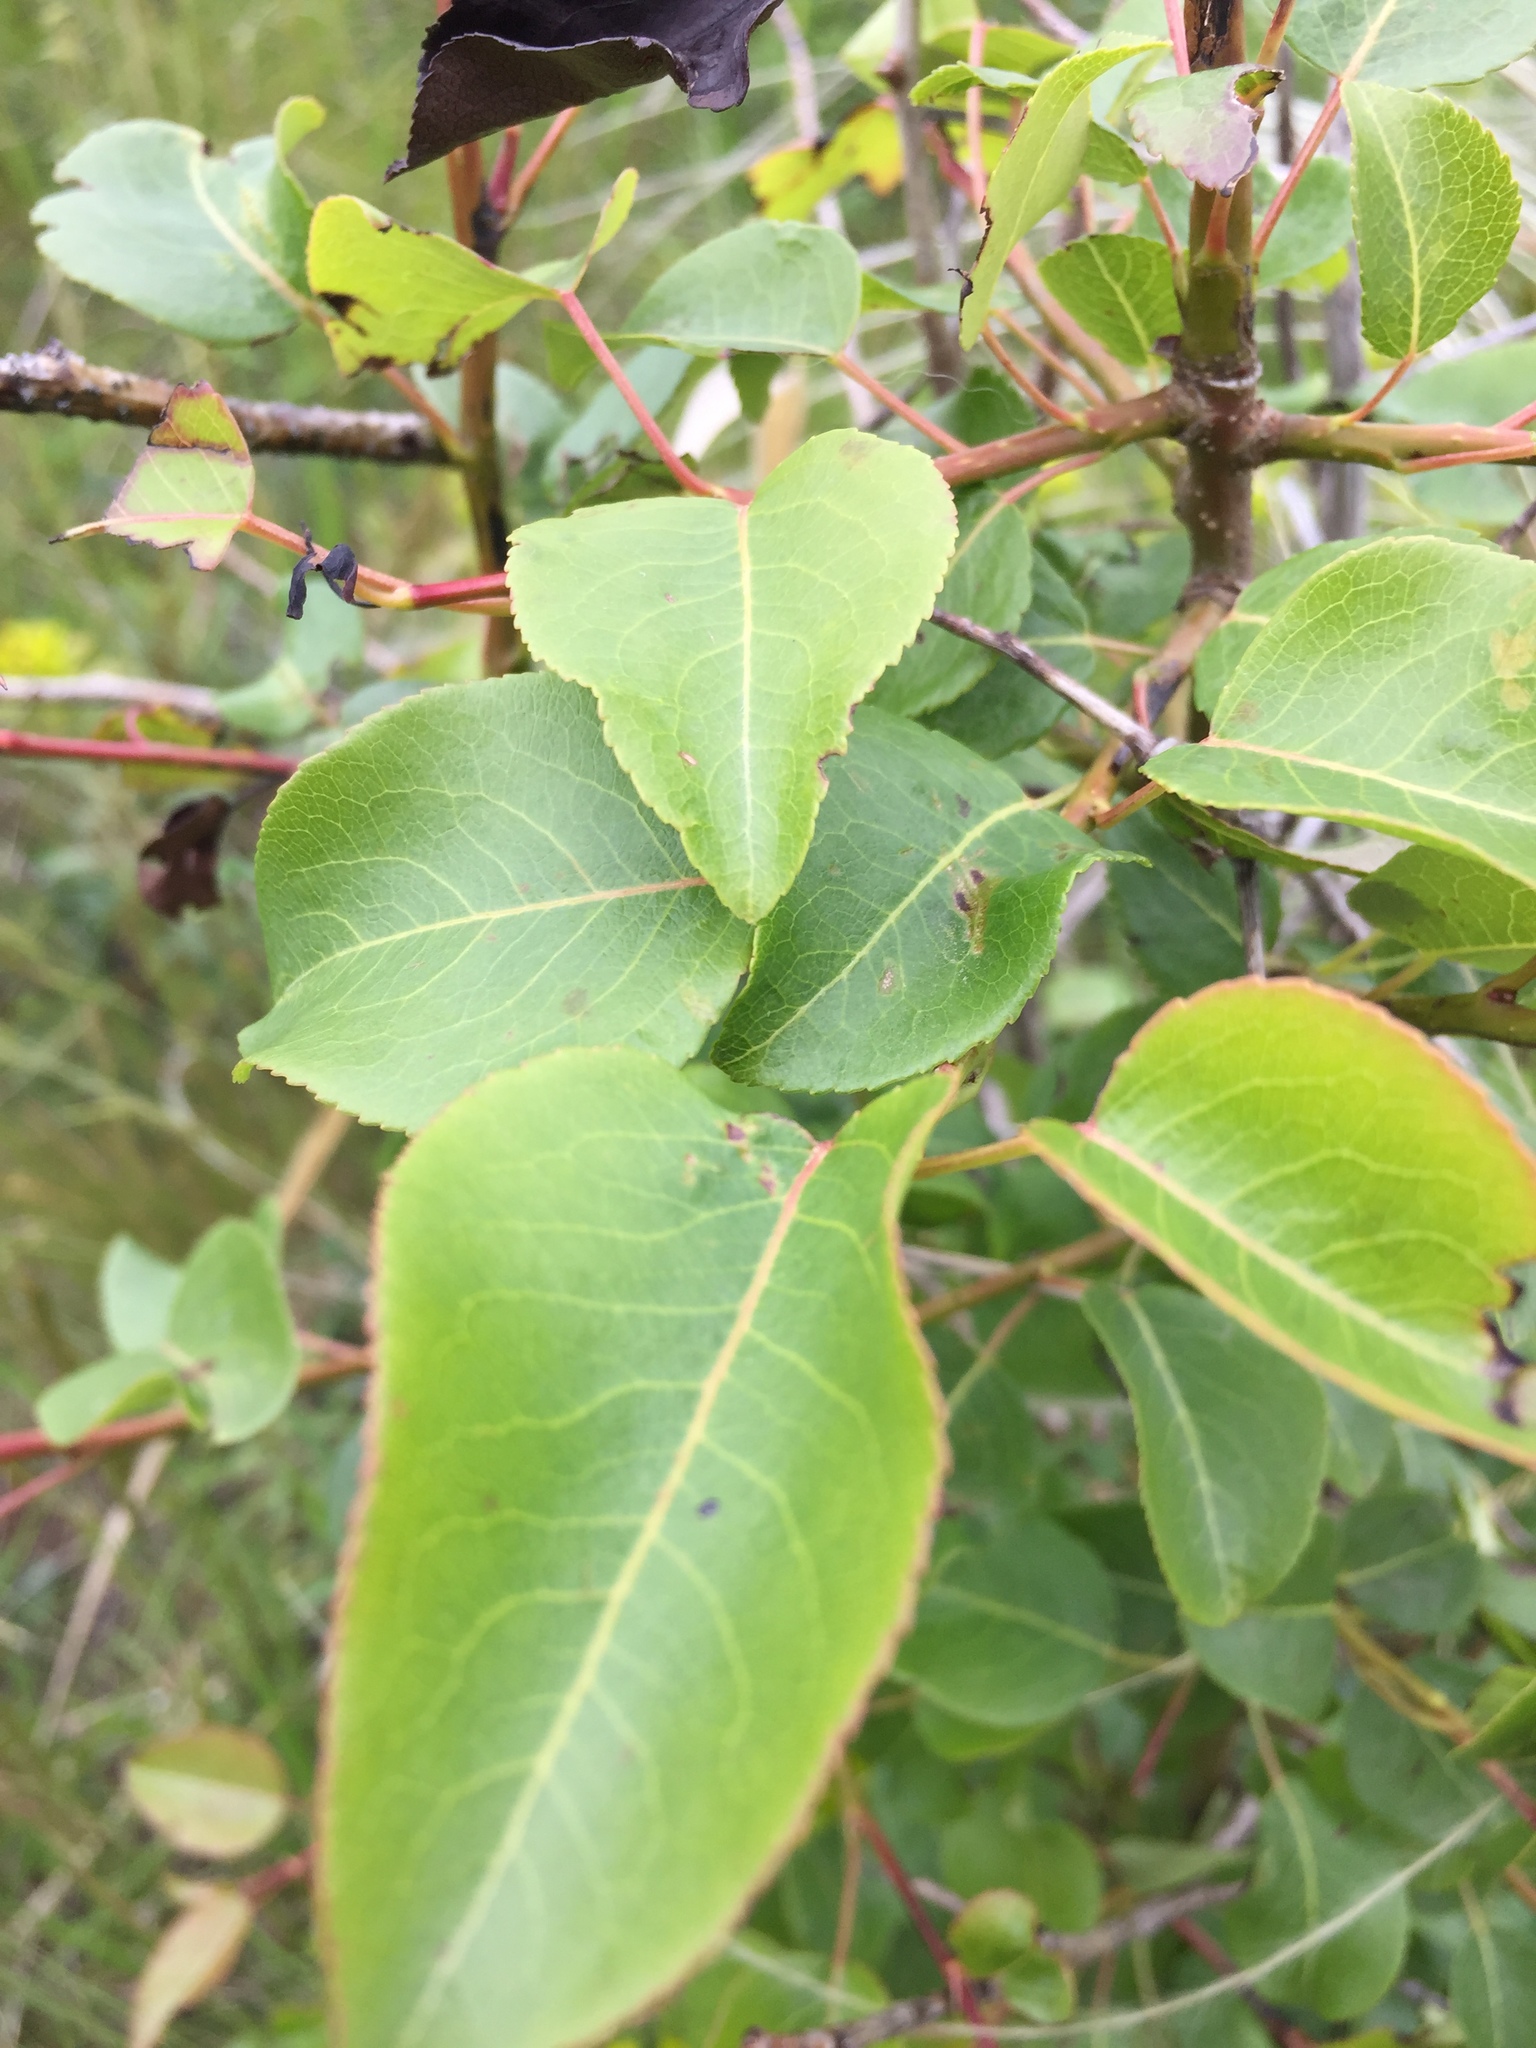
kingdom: Plantae
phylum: Tracheophyta
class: Magnoliopsida
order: Rosales
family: Rosaceae
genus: Pyrus
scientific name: Pyrus communis
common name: Pear
